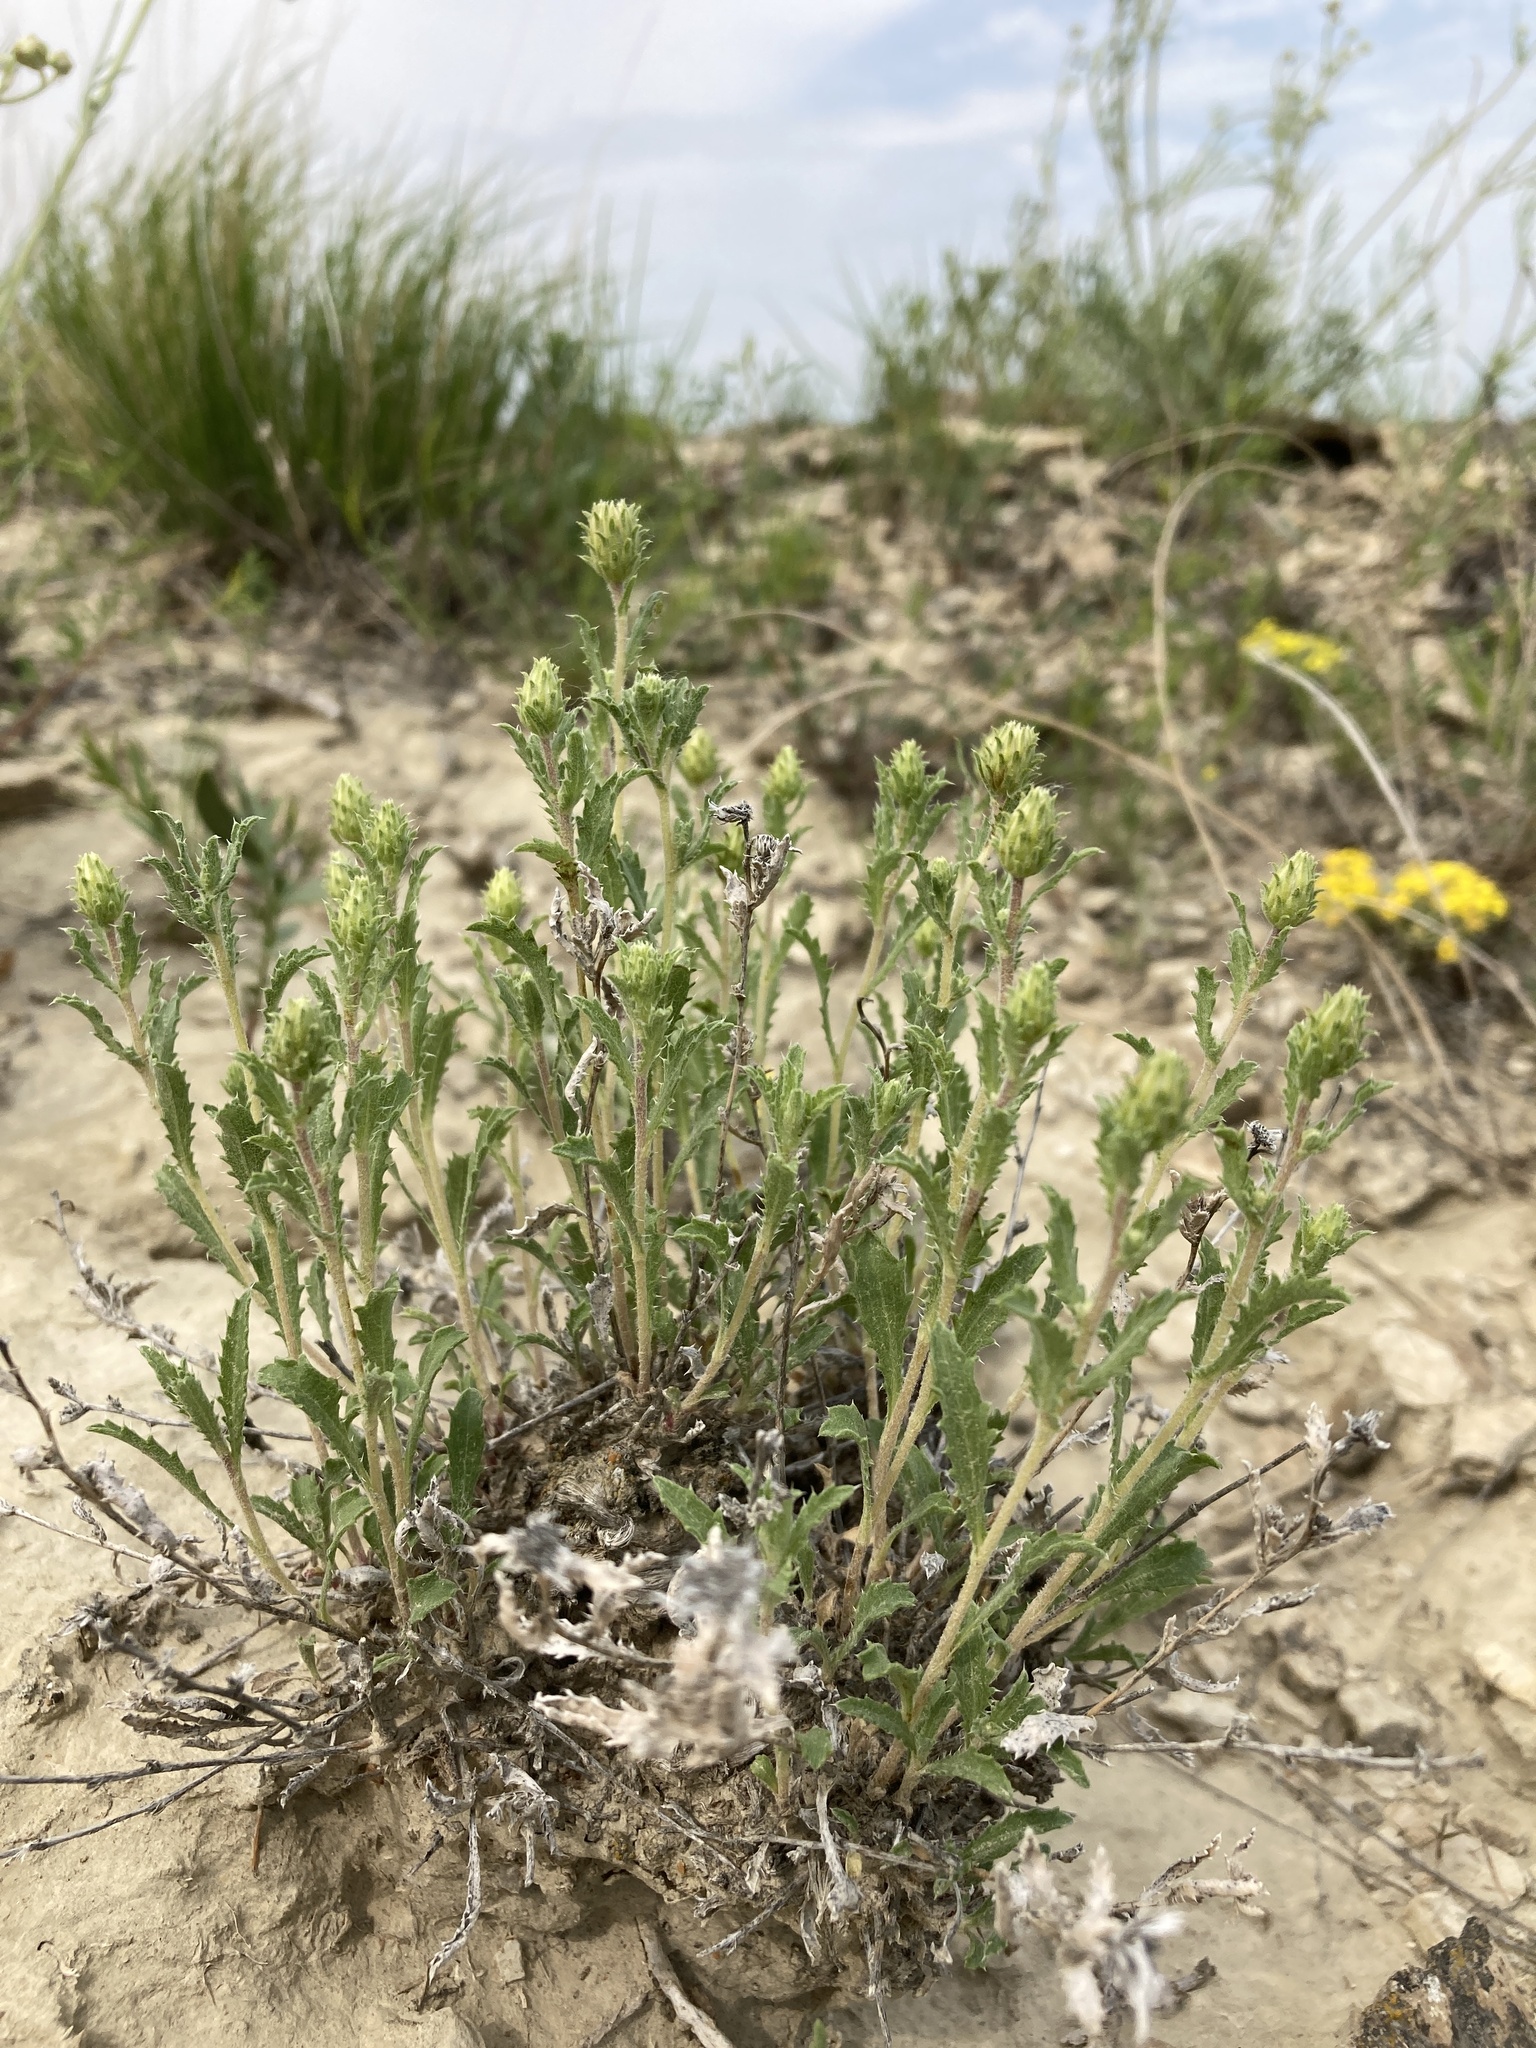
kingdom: Plantae
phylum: Tracheophyta
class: Magnoliopsida
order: Asterales
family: Asteraceae
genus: Xanthisma
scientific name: Xanthisma grindelioides
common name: Goldenweed
